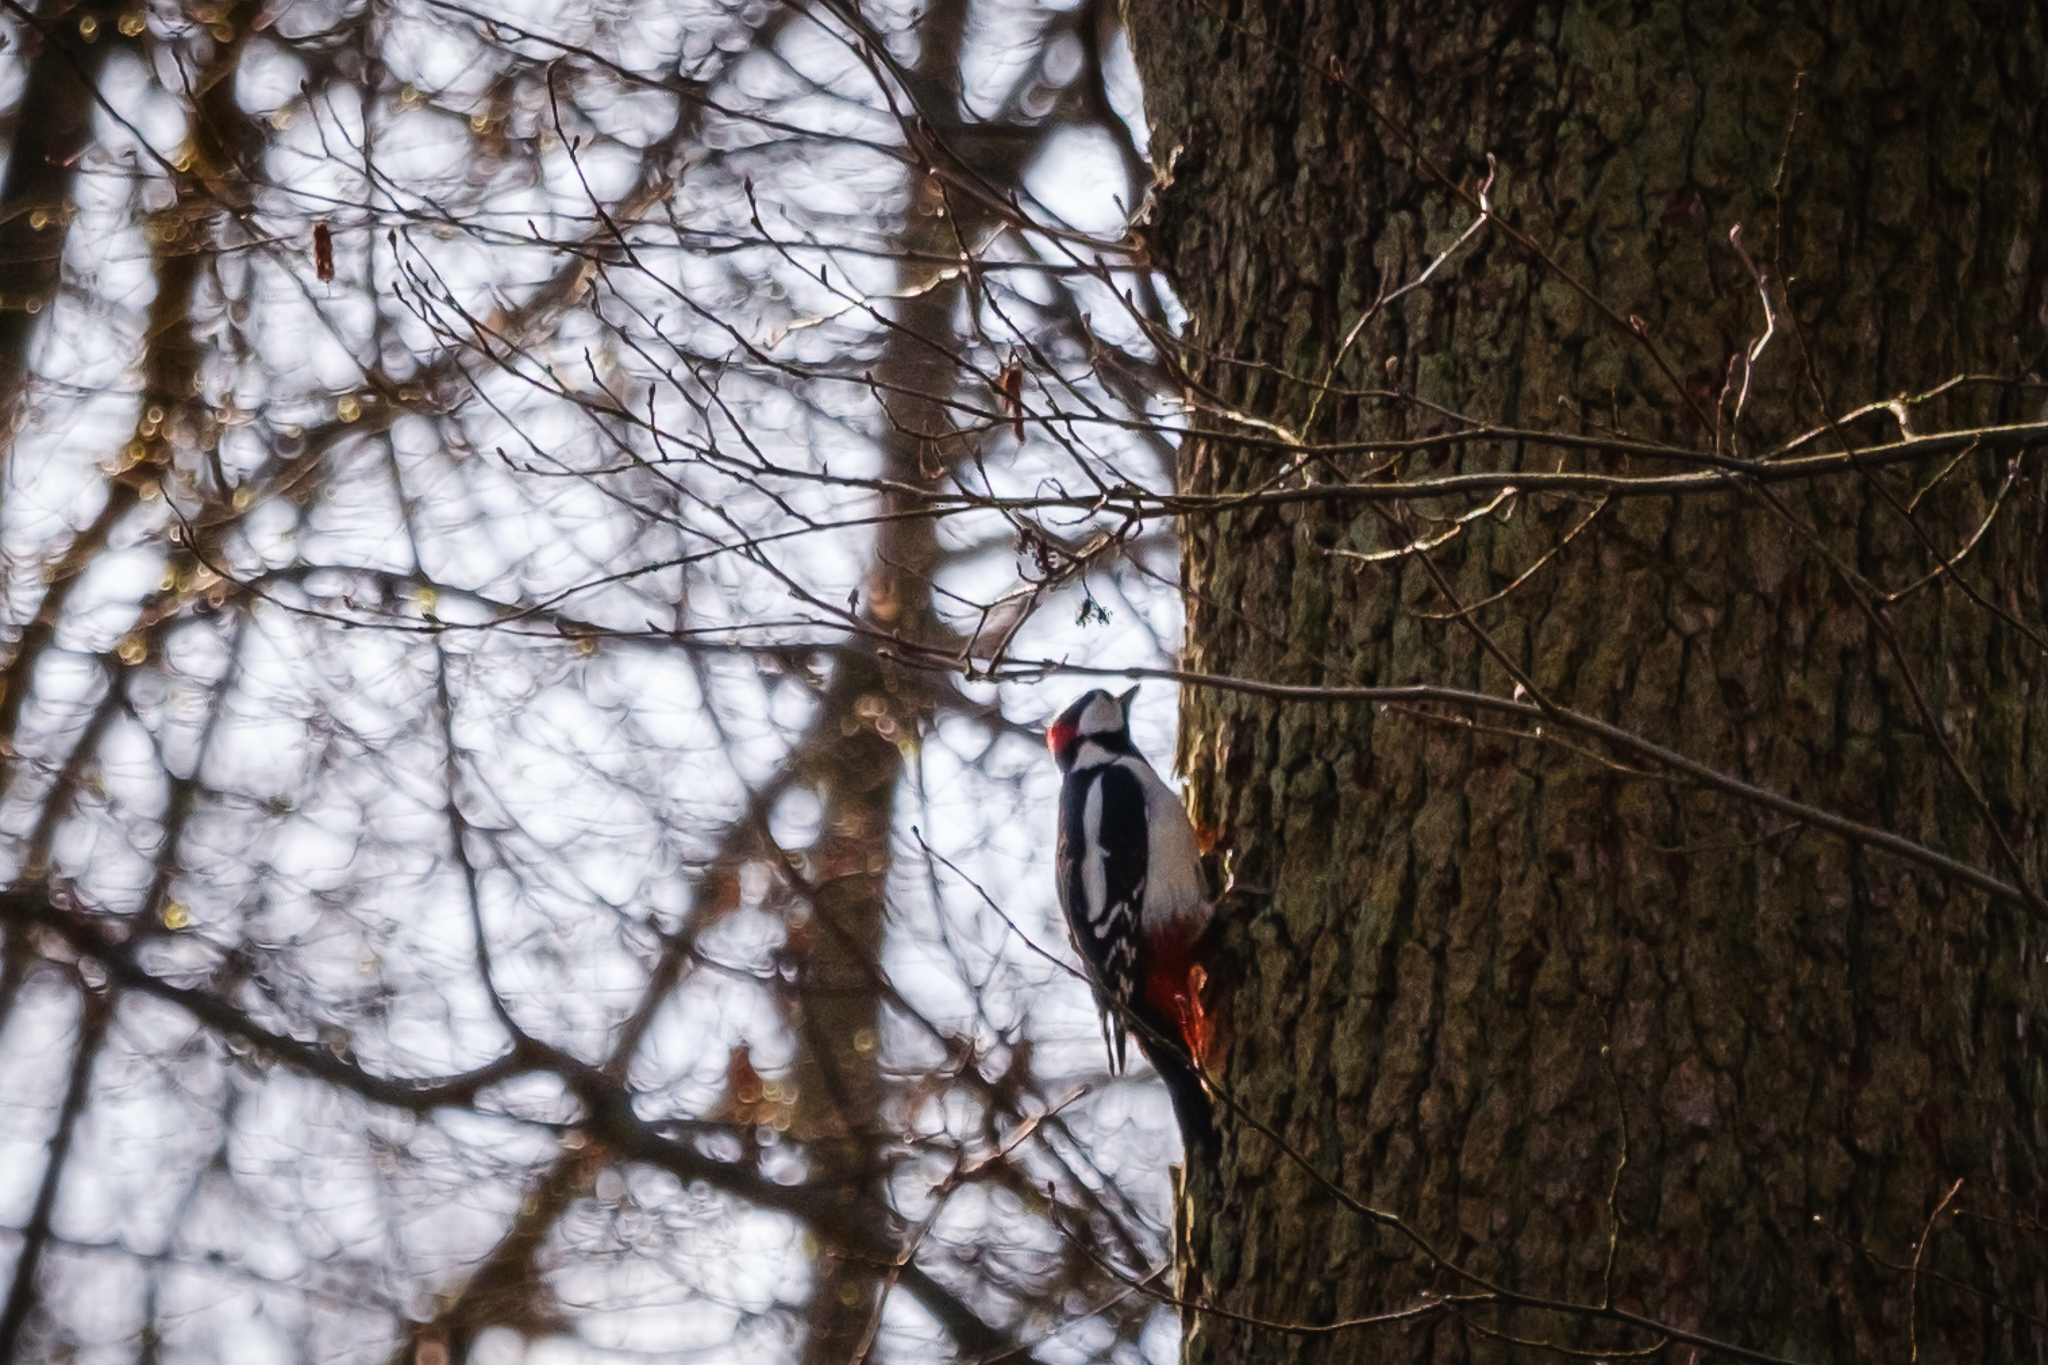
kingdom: Animalia
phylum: Chordata
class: Aves
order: Piciformes
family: Picidae
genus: Dendrocopos
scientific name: Dendrocopos major
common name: Great spotted woodpecker
